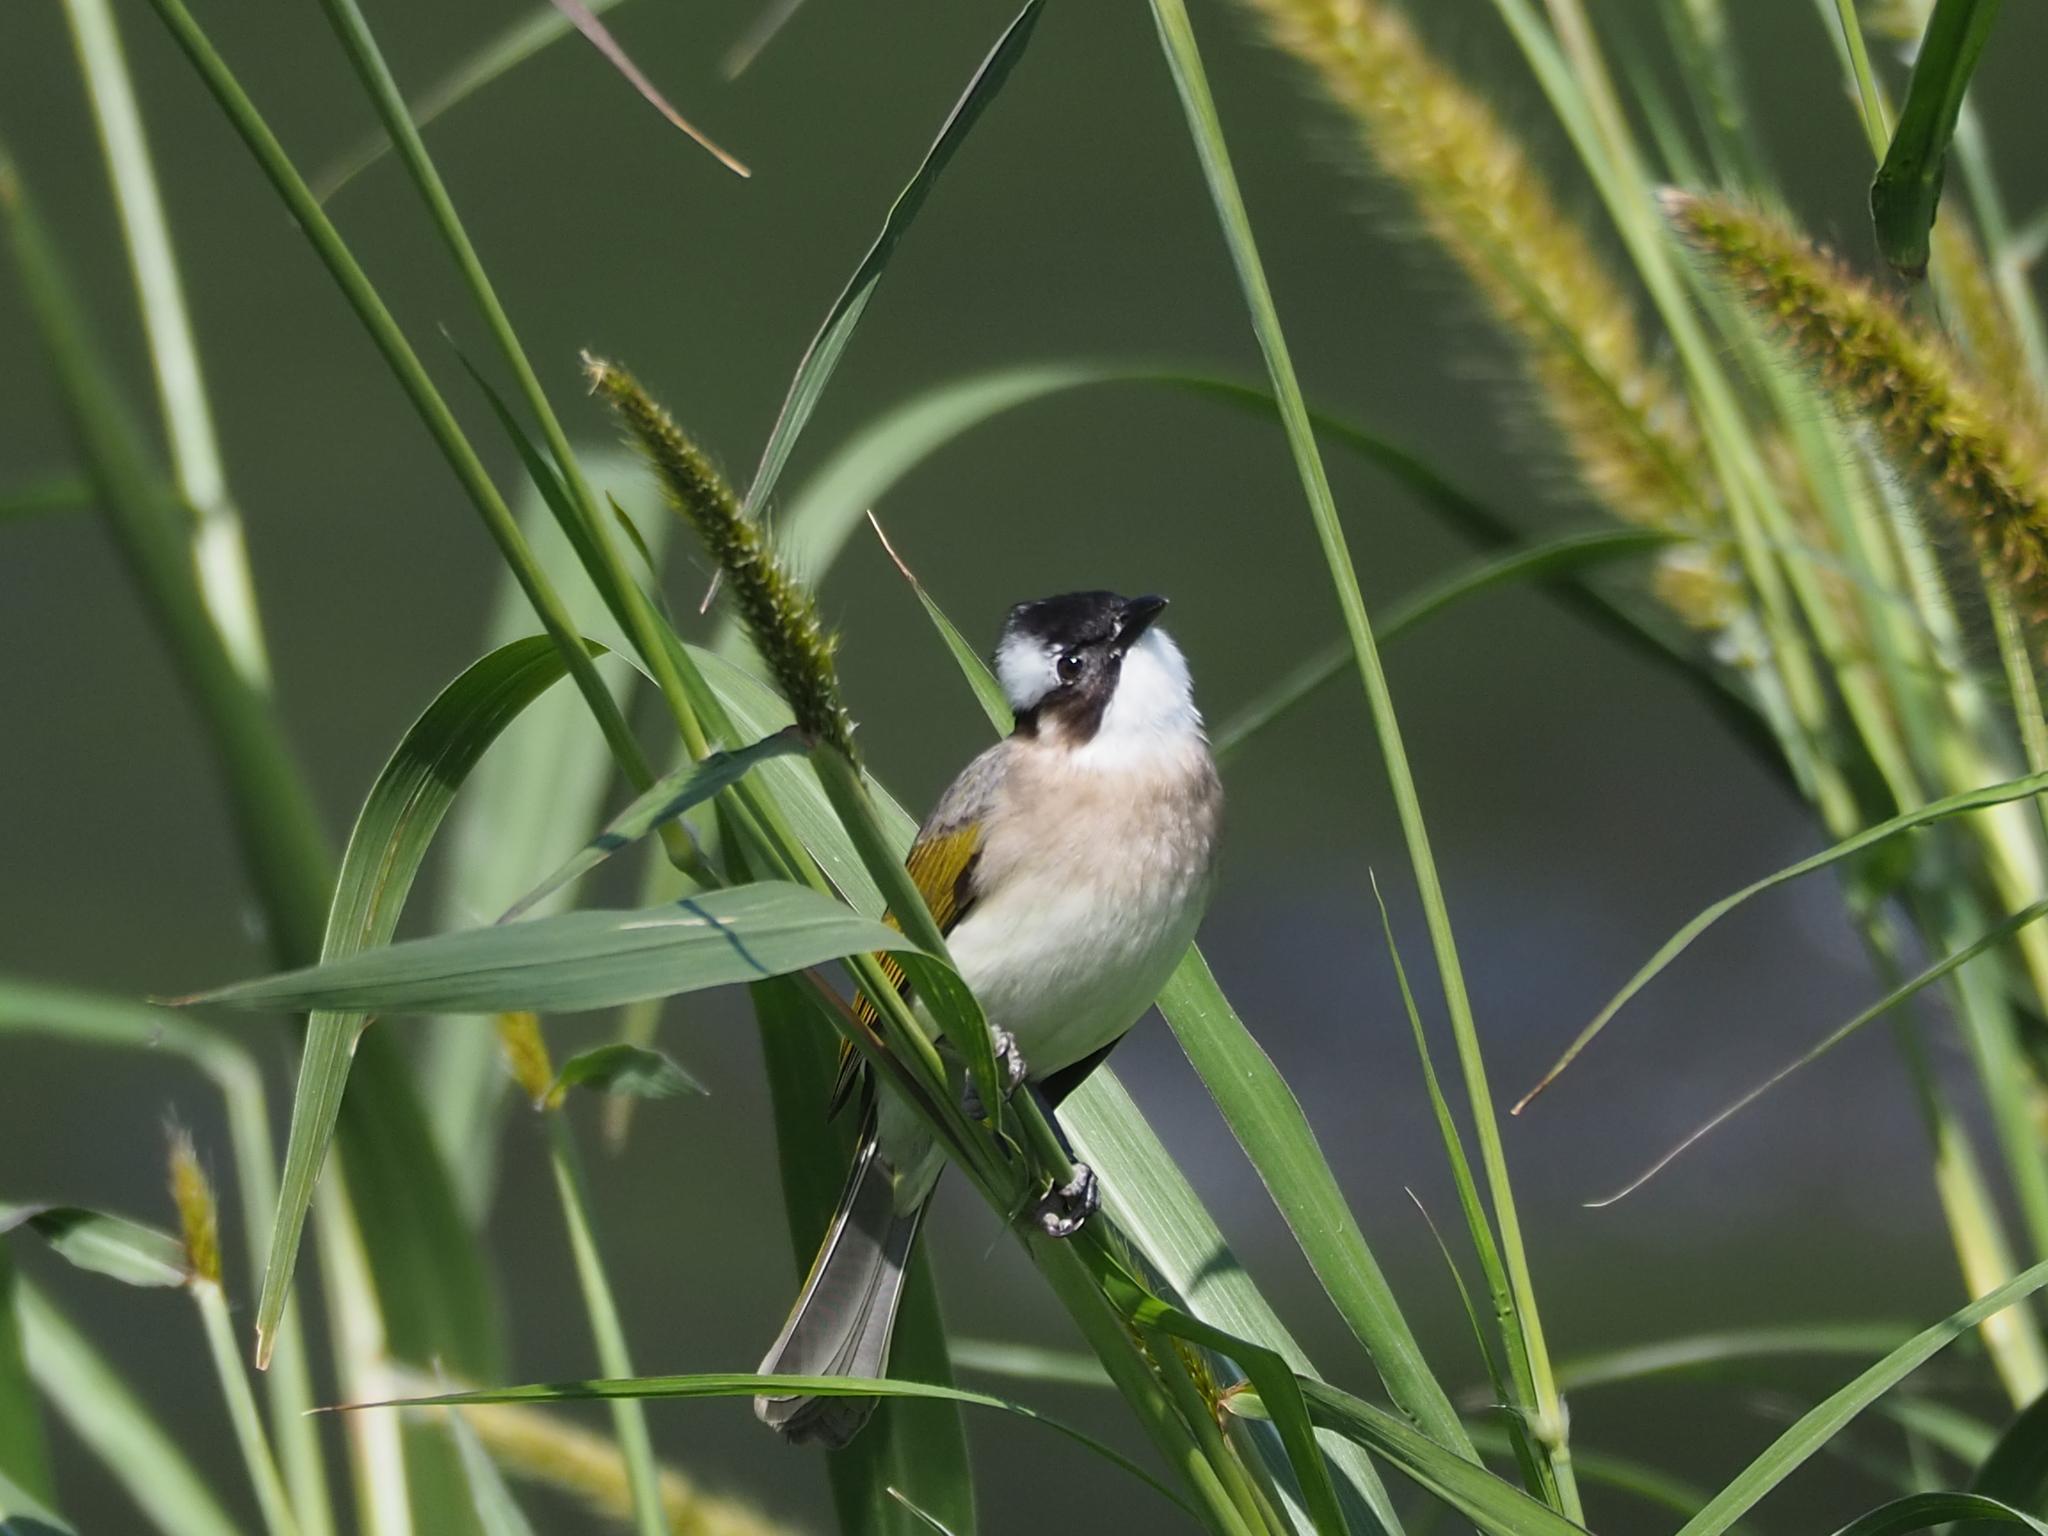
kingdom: Animalia
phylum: Chordata
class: Aves
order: Passeriformes
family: Pycnonotidae
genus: Pycnonotus
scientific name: Pycnonotus sinensis
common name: Light-vented bulbul
